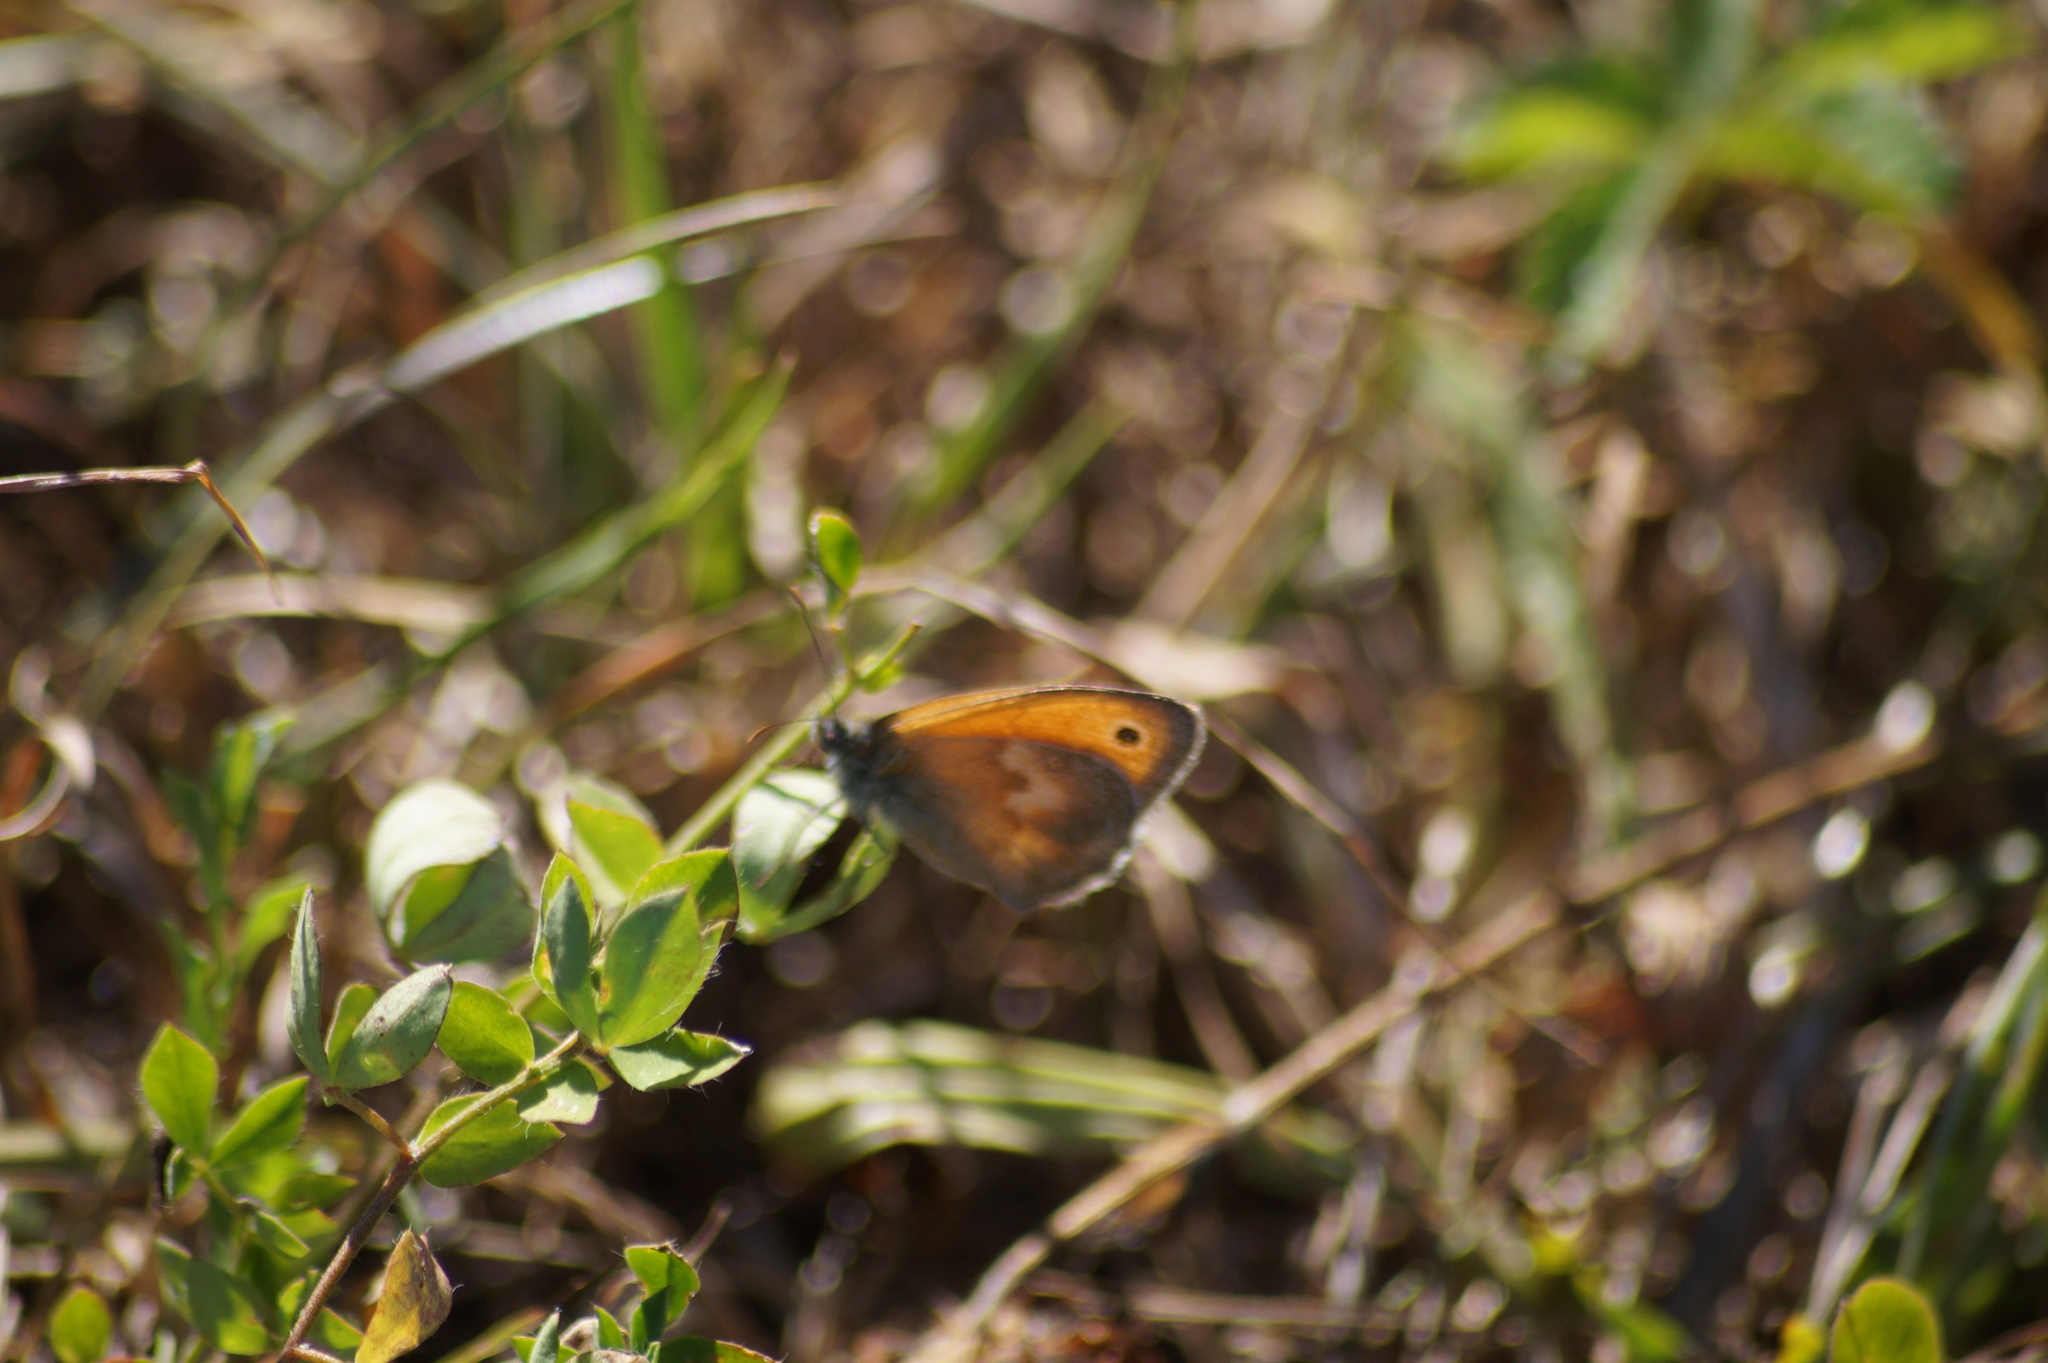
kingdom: Animalia
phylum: Arthropoda
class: Insecta
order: Lepidoptera
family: Nymphalidae
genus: Coenonympha
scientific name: Coenonympha pamphilus
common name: Small heath
